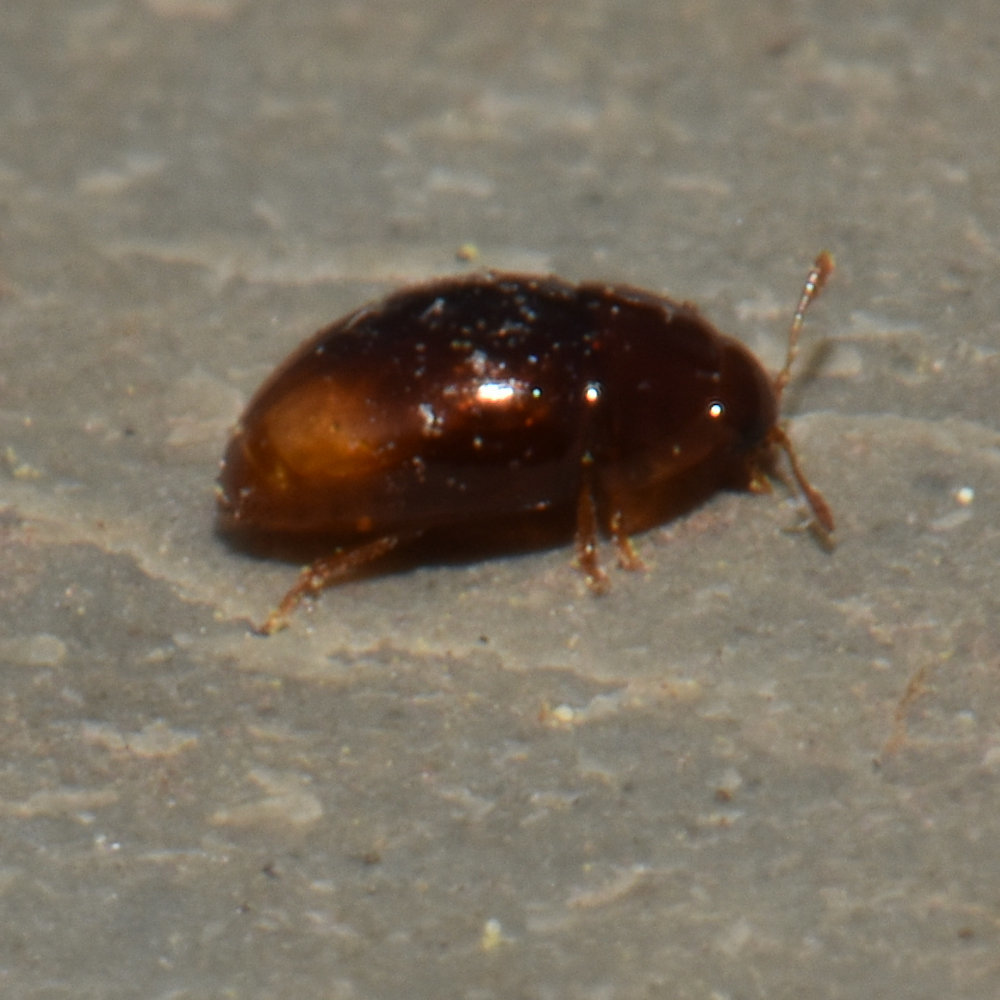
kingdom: Animalia
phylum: Arthropoda
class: Insecta
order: Coleoptera
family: Phalacridae
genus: Phalacrus
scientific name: Phalacrus apicalis
